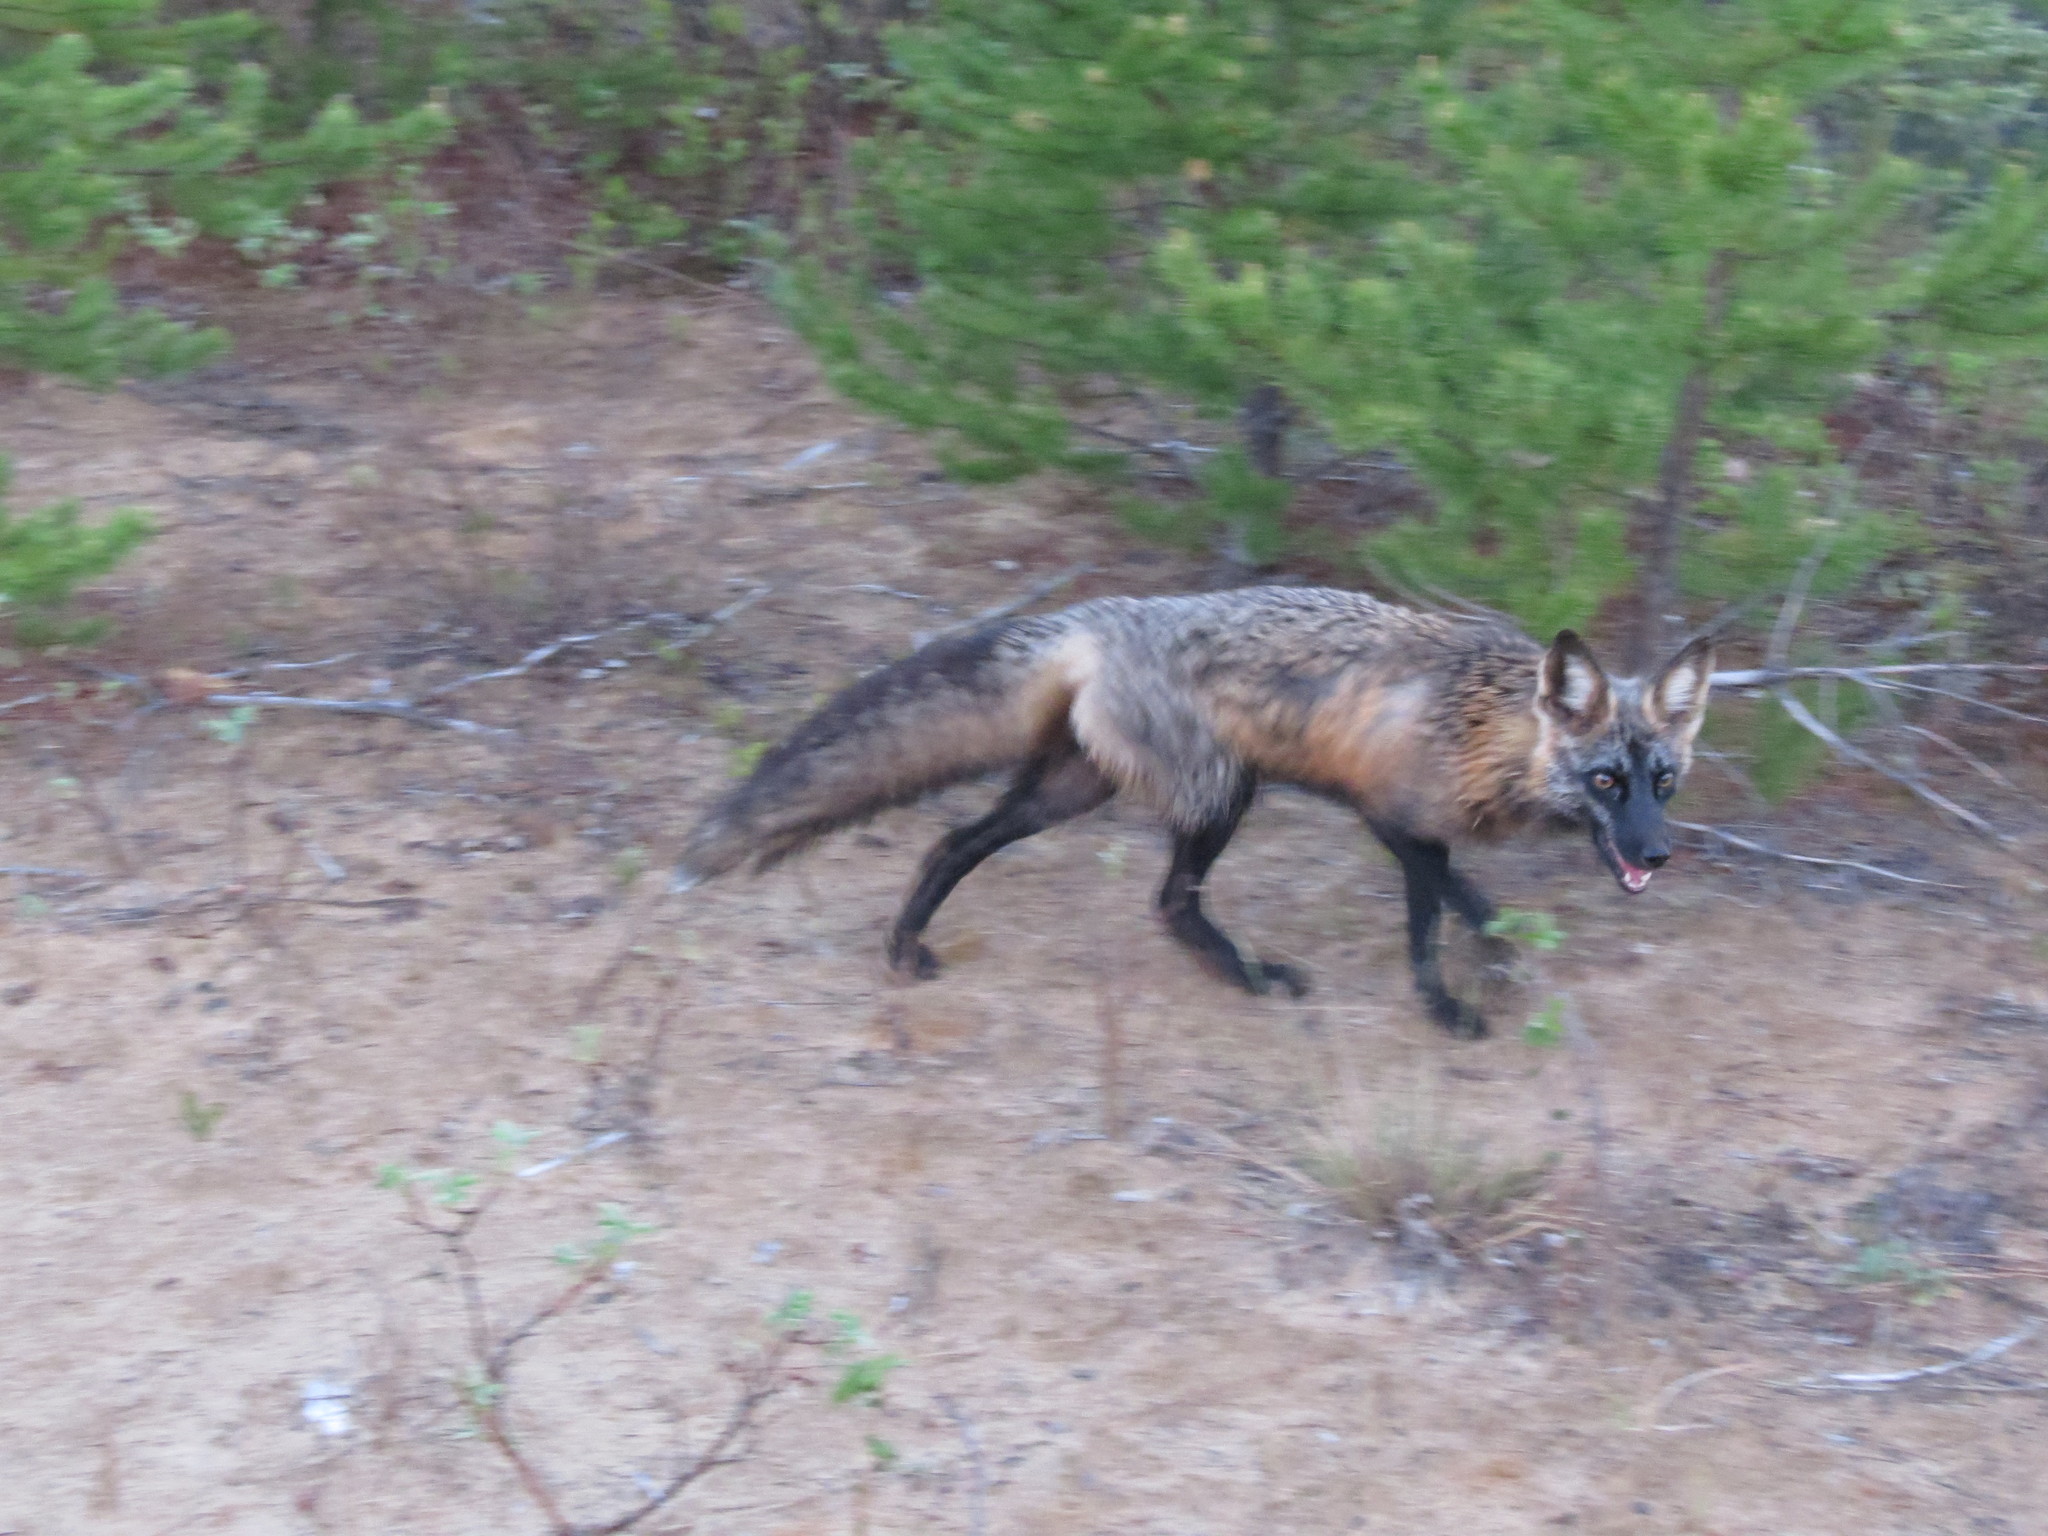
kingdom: Animalia
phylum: Chordata
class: Mammalia
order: Carnivora
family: Canidae
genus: Vulpes
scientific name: Vulpes vulpes
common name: Red fox
